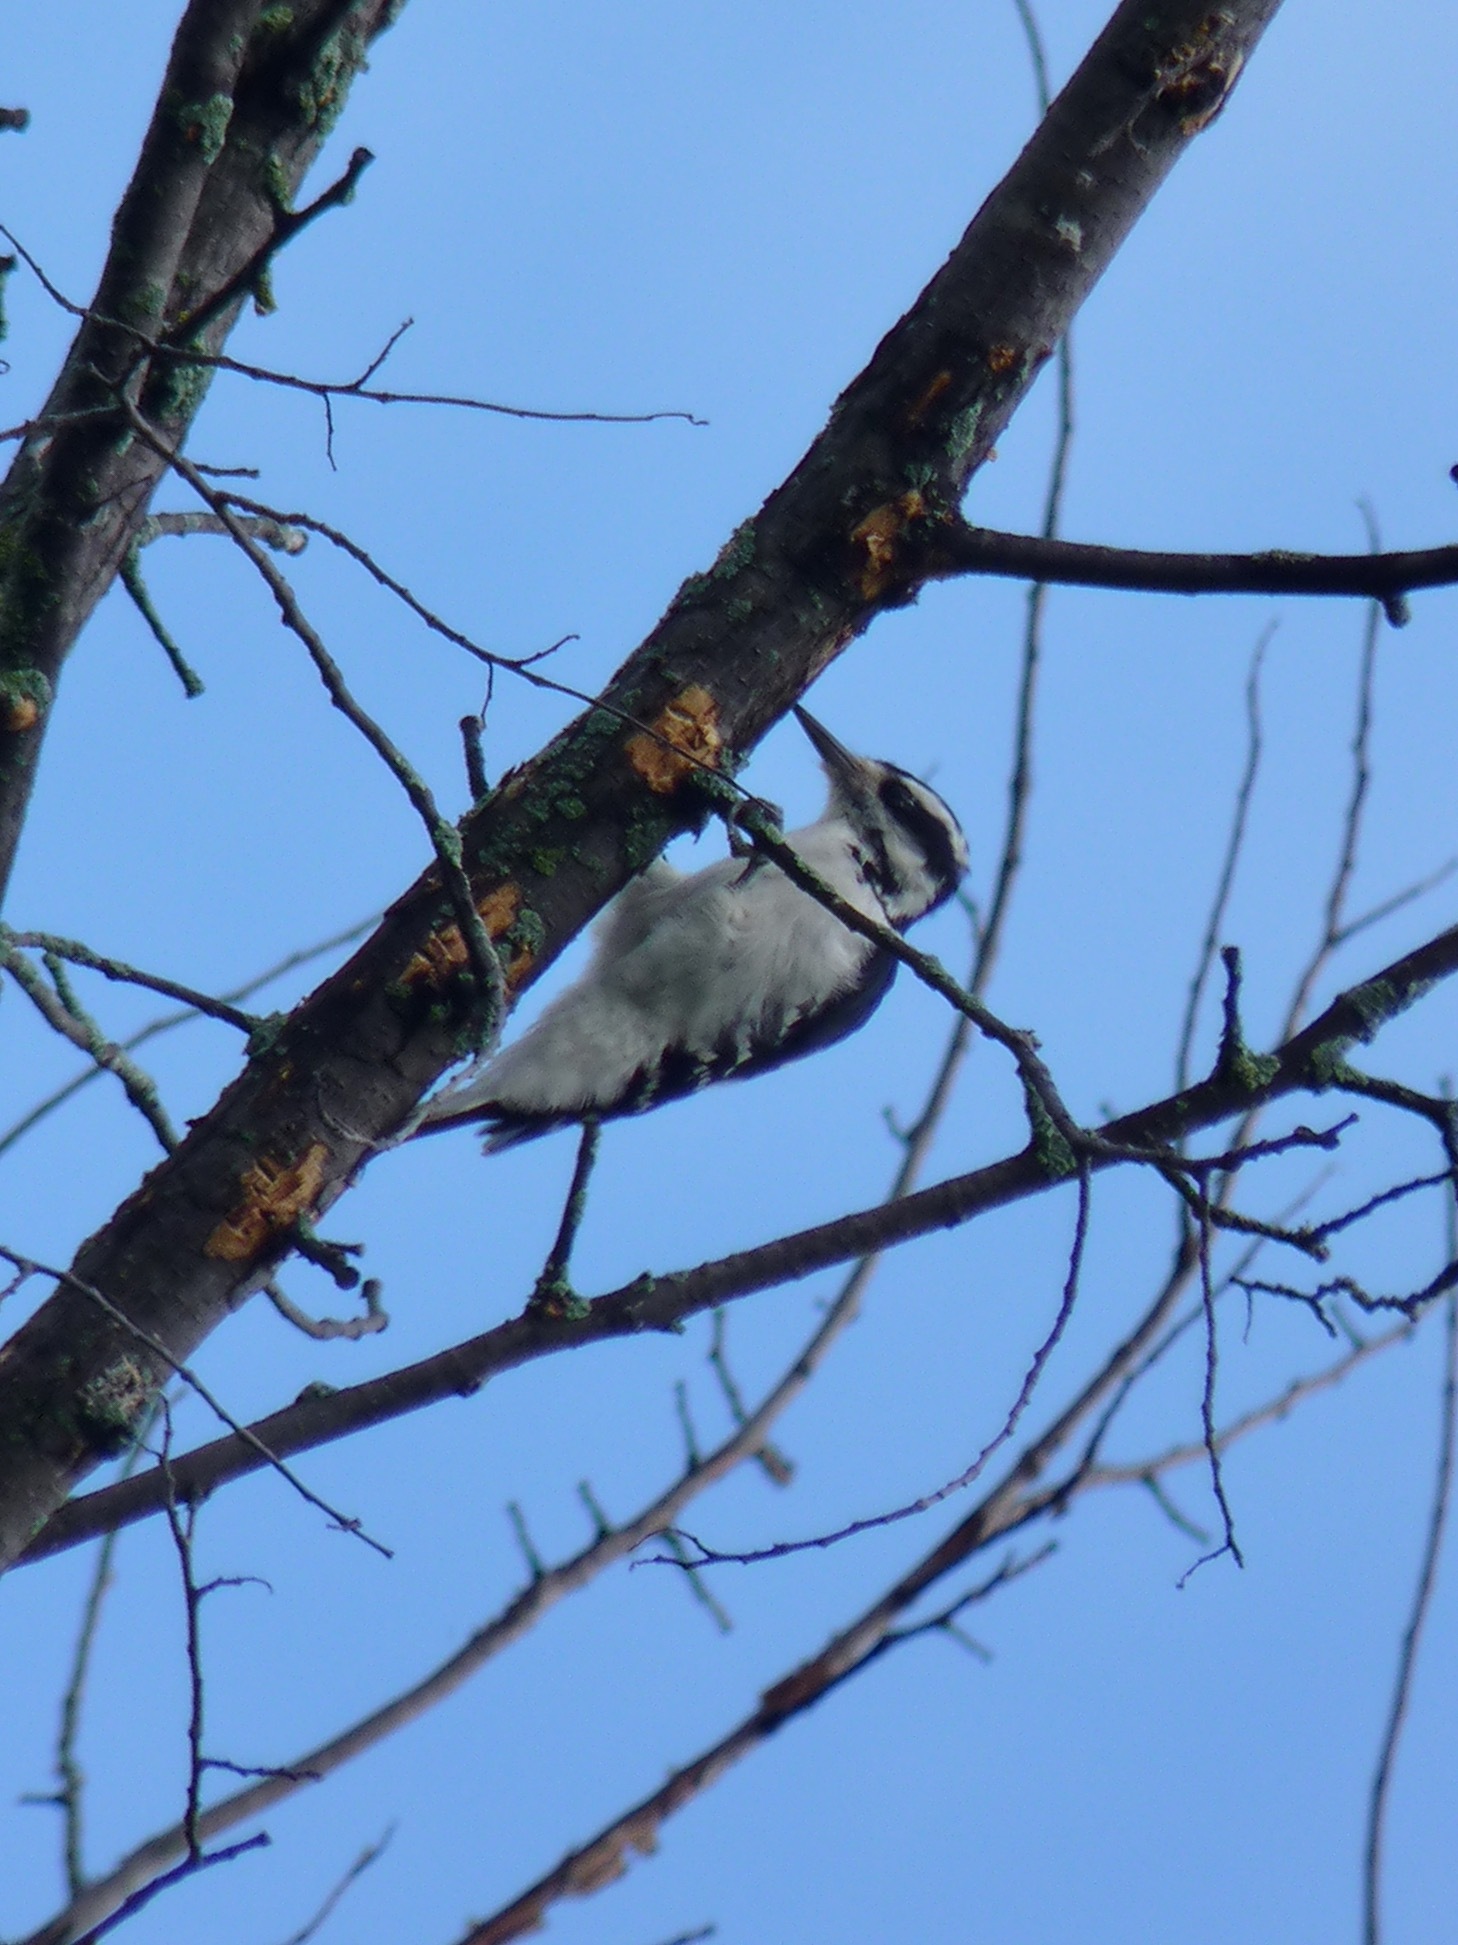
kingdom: Animalia
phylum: Chordata
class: Aves
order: Piciformes
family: Picidae
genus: Leuconotopicus
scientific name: Leuconotopicus villosus
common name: Hairy woodpecker
